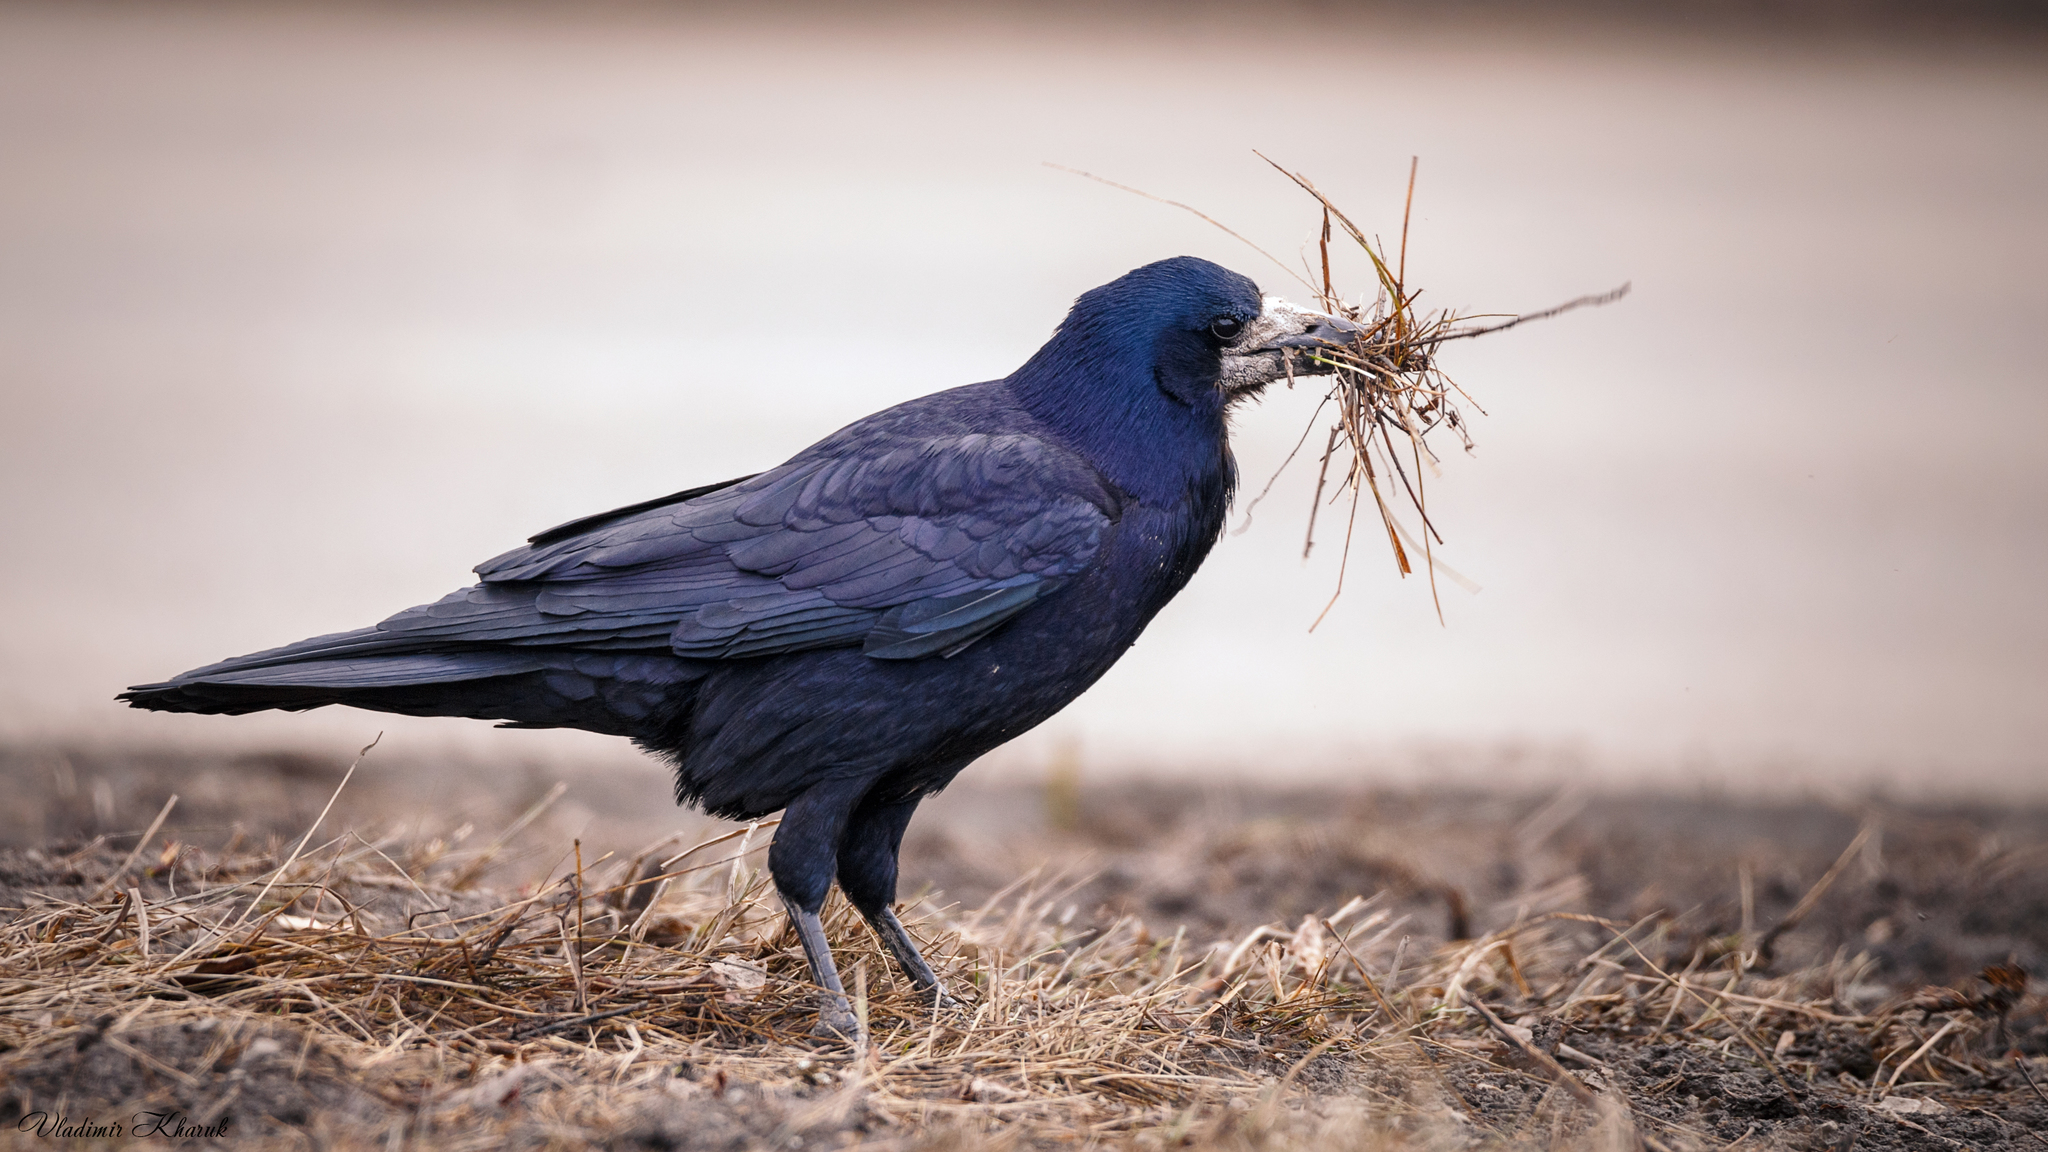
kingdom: Animalia
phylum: Chordata
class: Aves
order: Passeriformes
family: Corvidae
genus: Corvus
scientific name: Corvus frugilegus
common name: Rook
